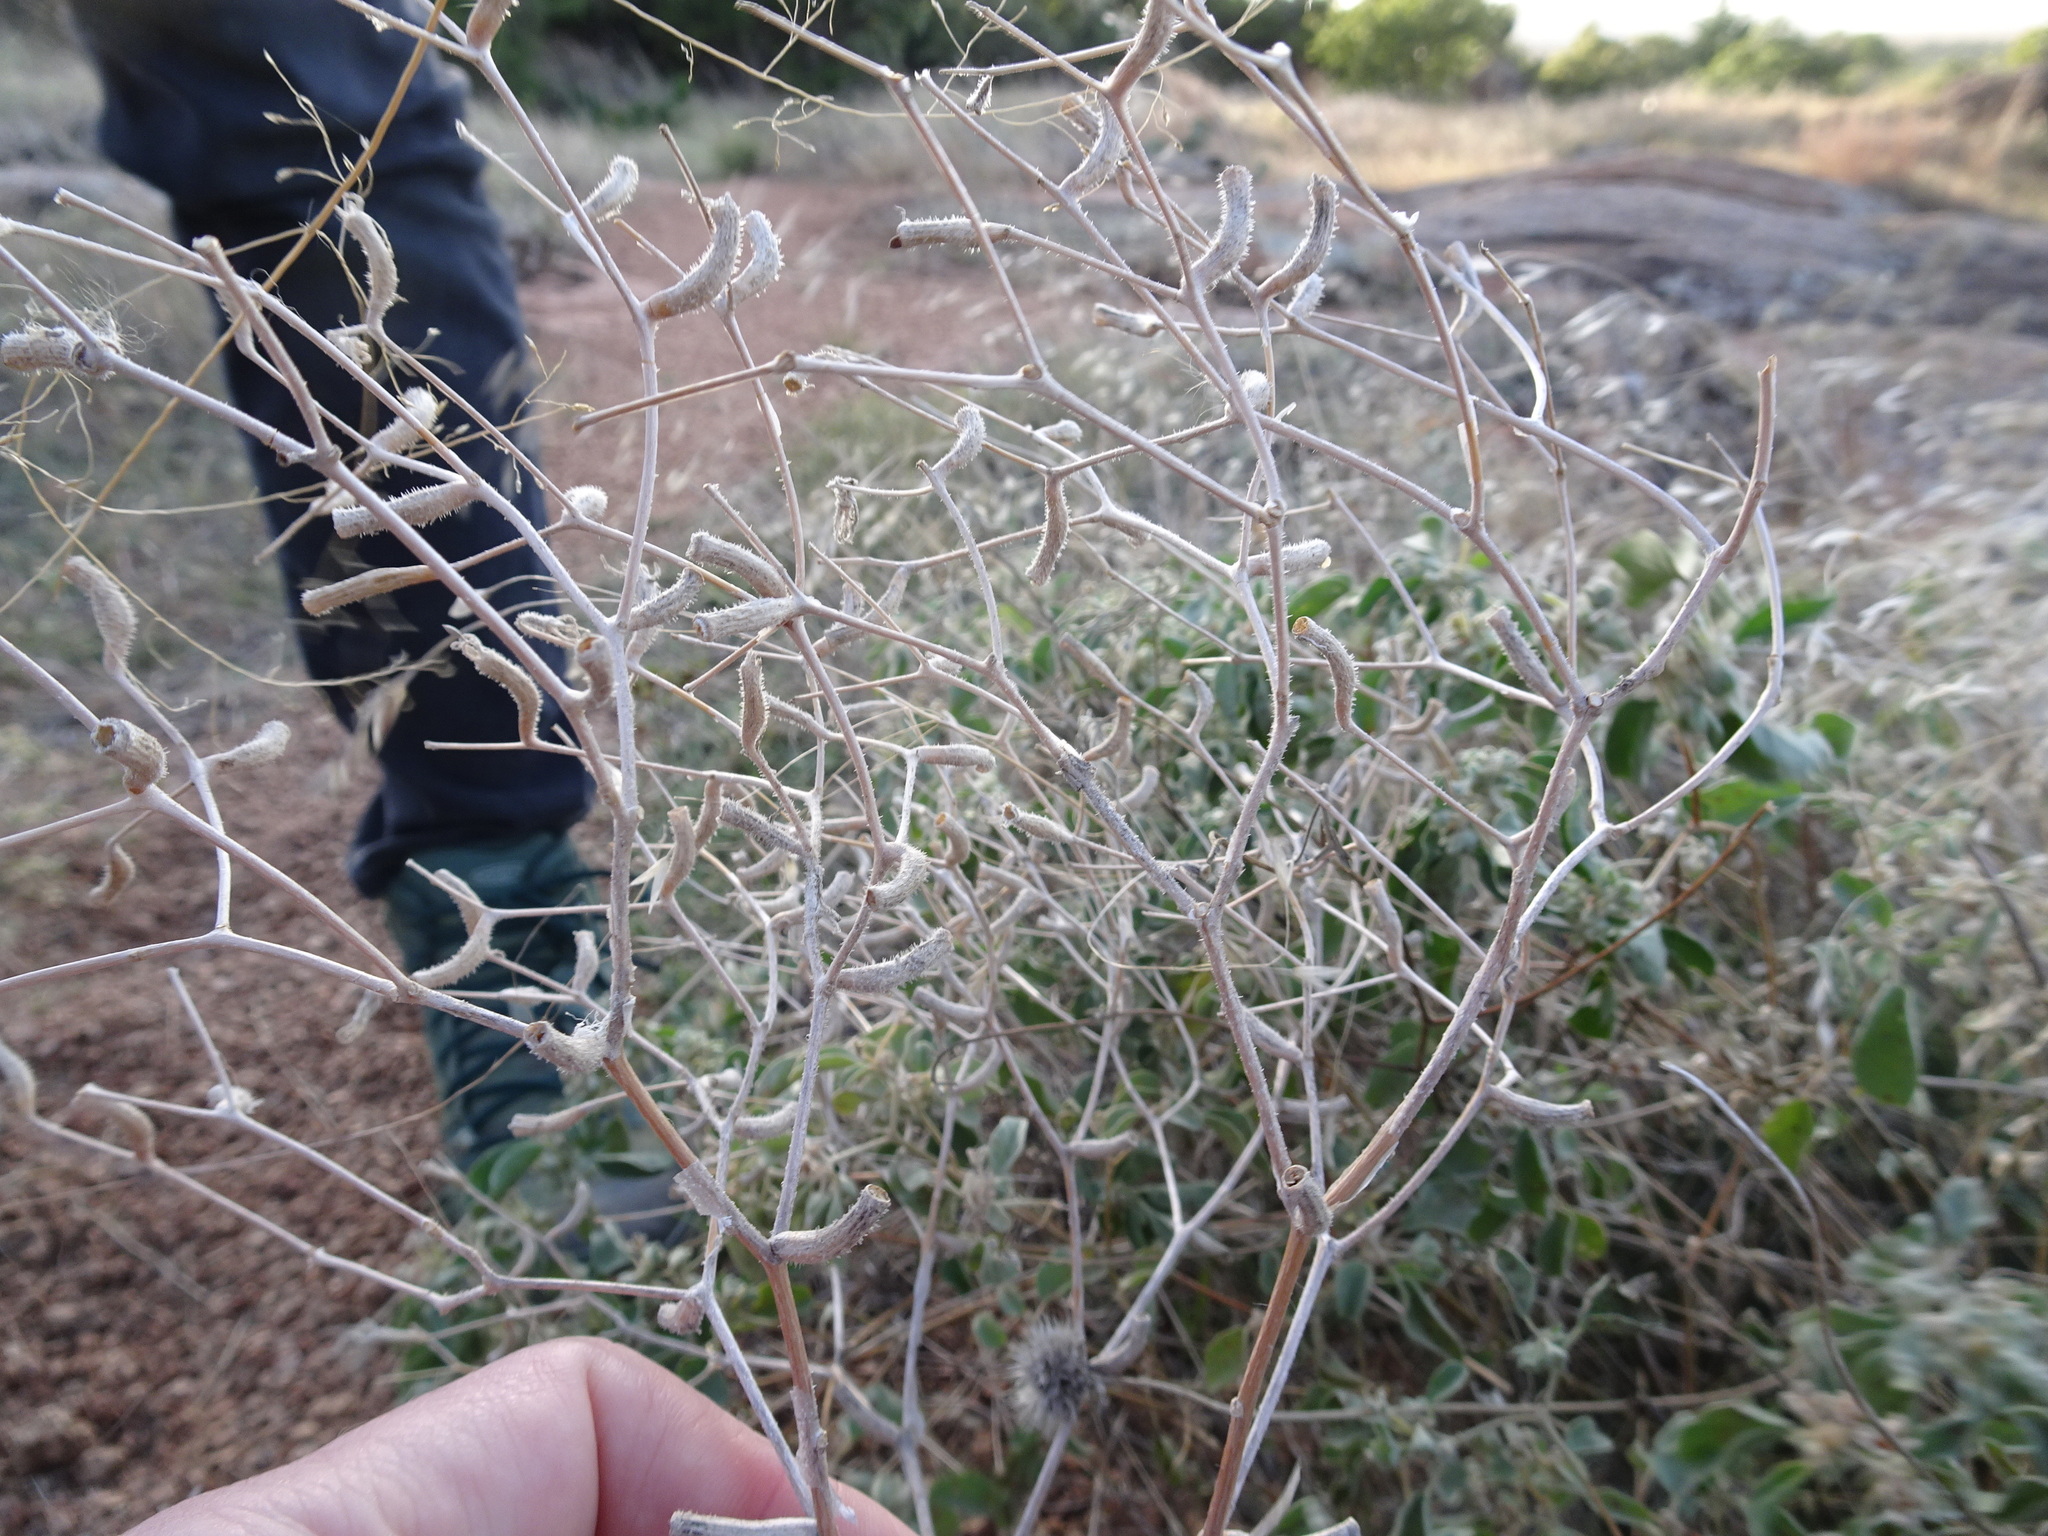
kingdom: Plantae
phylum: Tracheophyta
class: Magnoliopsida
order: Cornales
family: Loasaceae
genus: Mentzelia
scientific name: Mentzelia oligosperma
